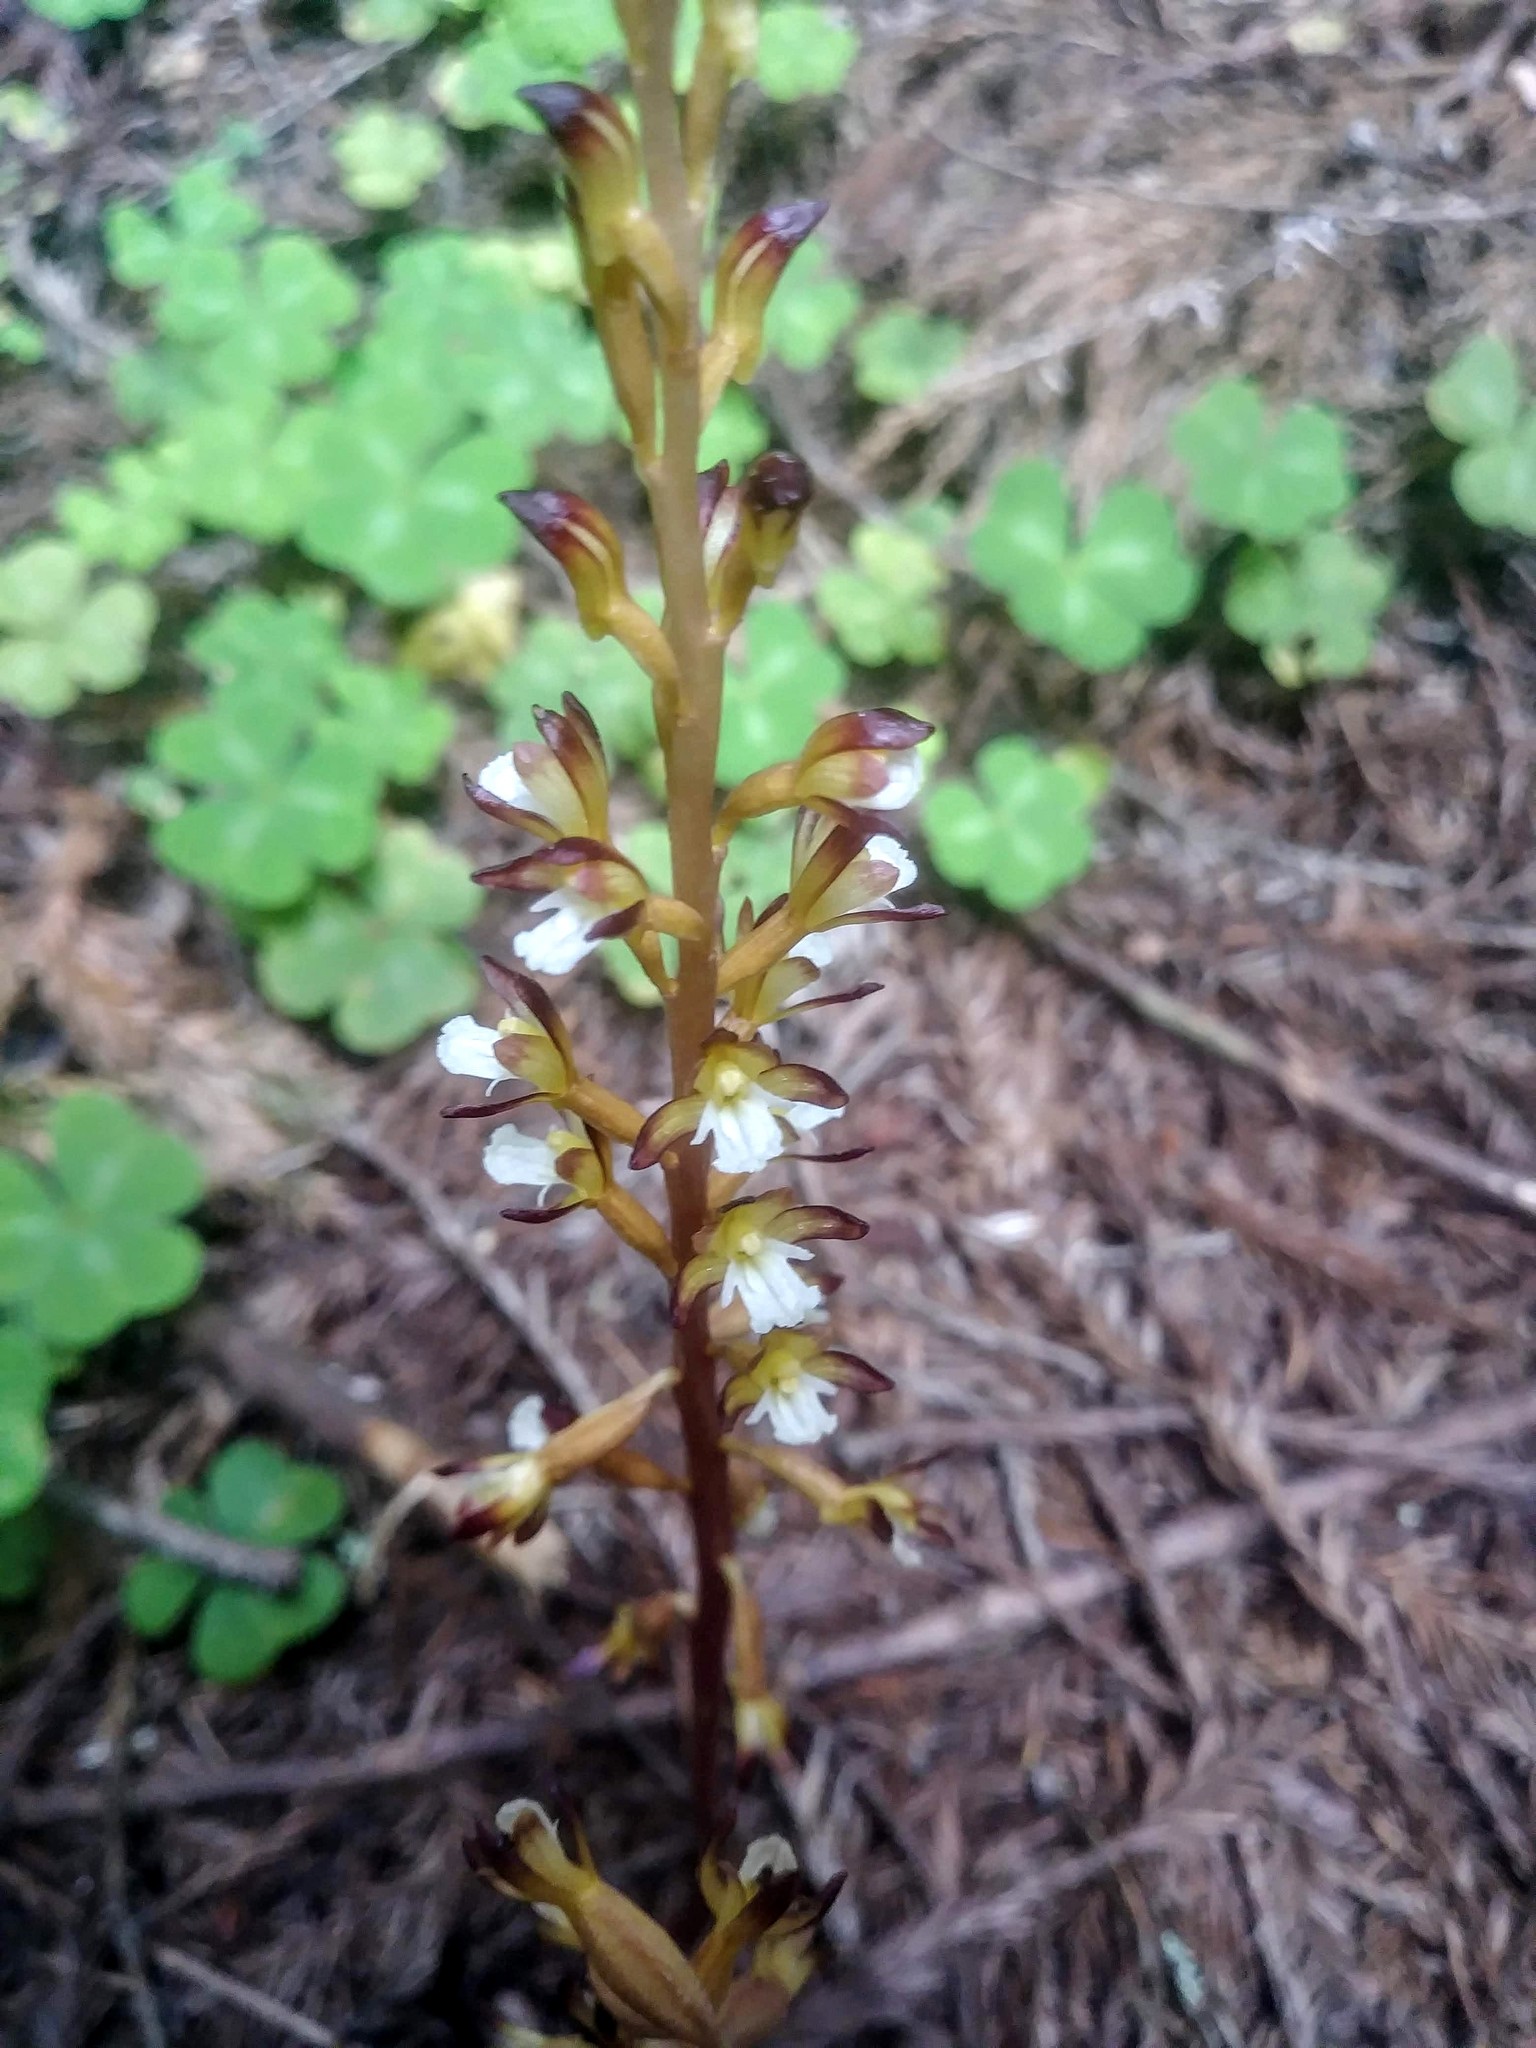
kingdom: Plantae
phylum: Tracheophyta
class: Liliopsida
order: Asparagales
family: Orchidaceae
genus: Corallorhiza
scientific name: Corallorhiza maculata
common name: Spotted coralroot
